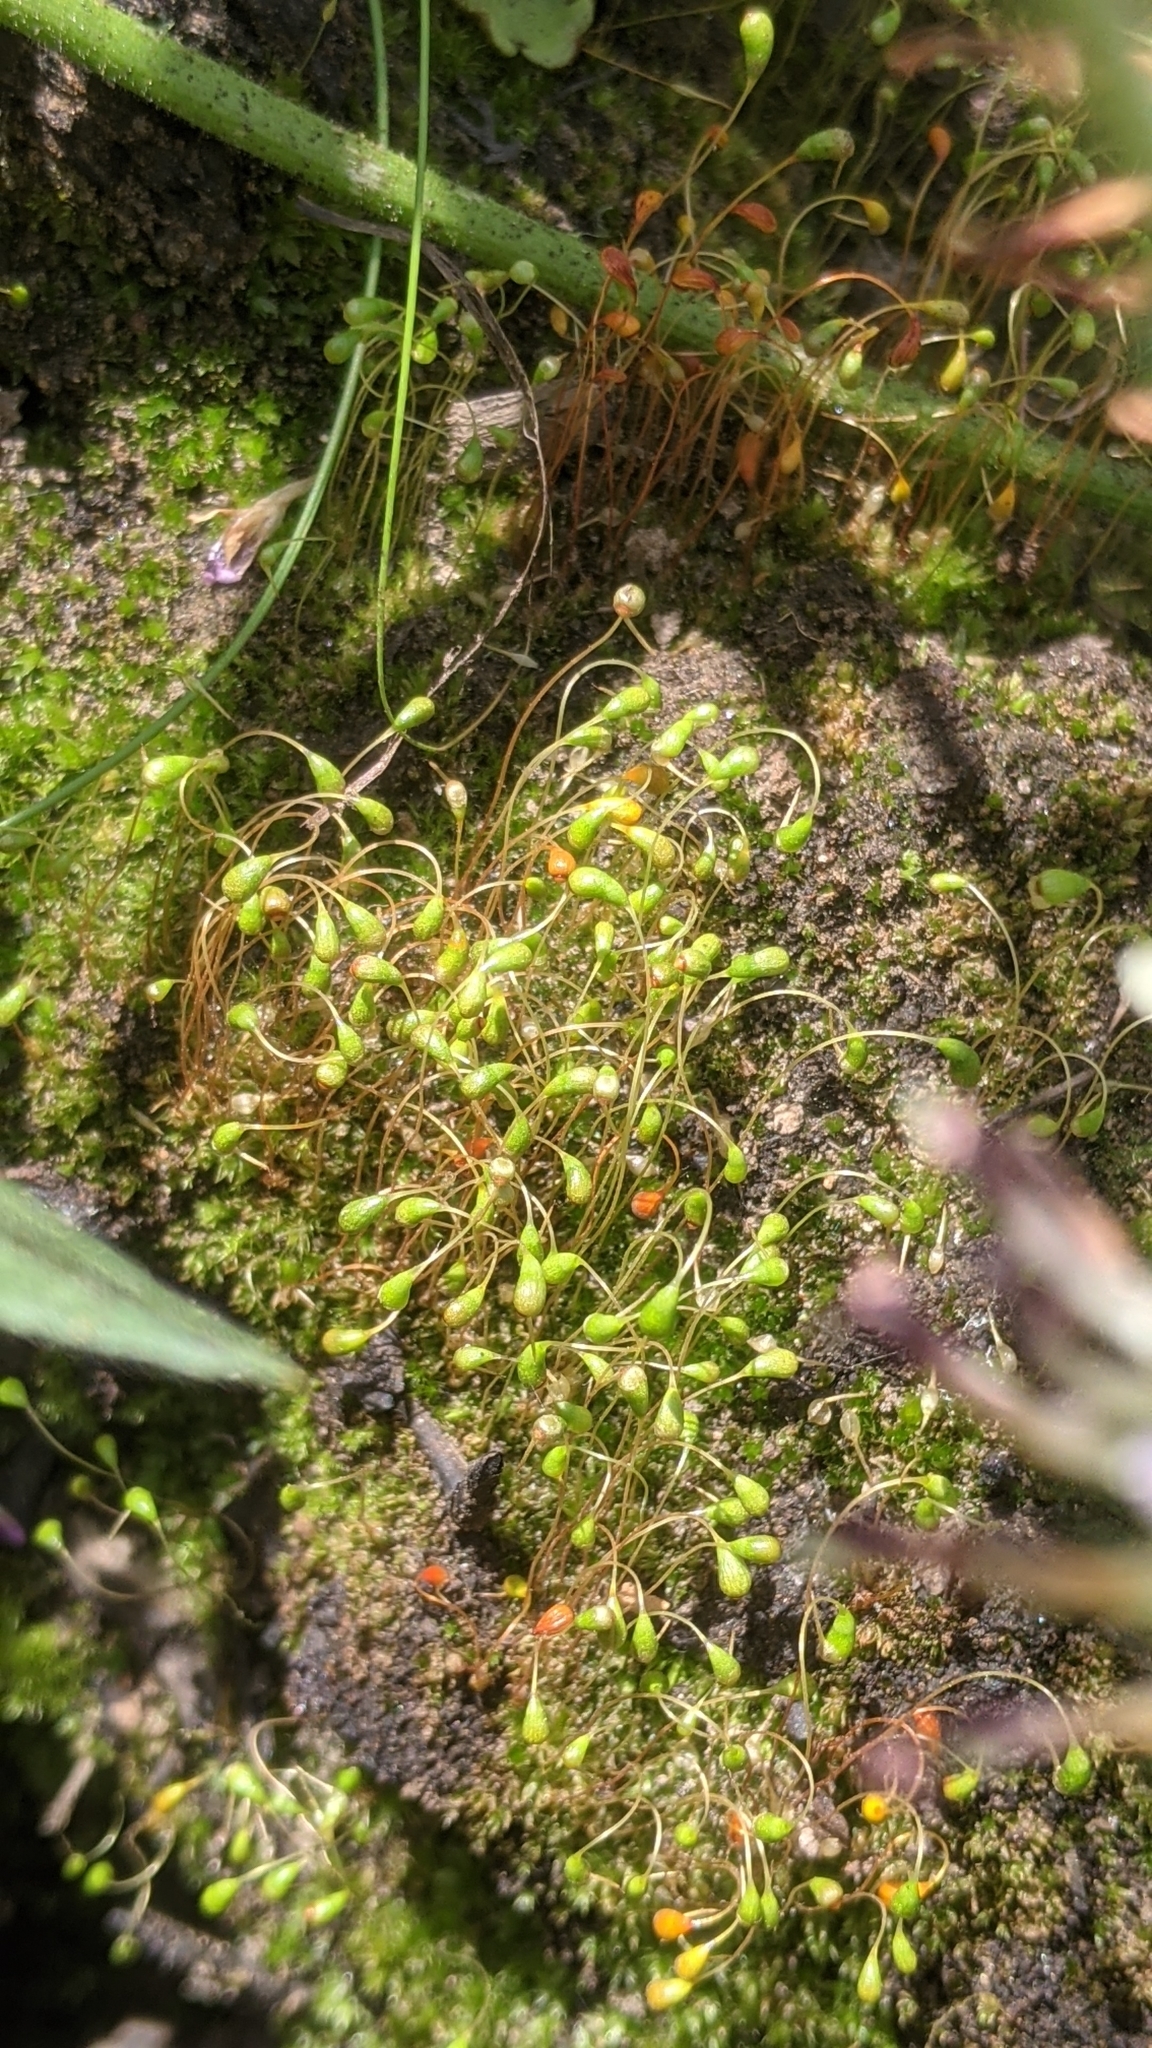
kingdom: Plantae
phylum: Bryophyta
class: Bryopsida
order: Funariales
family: Funariaceae
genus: Funaria
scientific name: Funaria hygrometrica
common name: Common cord moss
